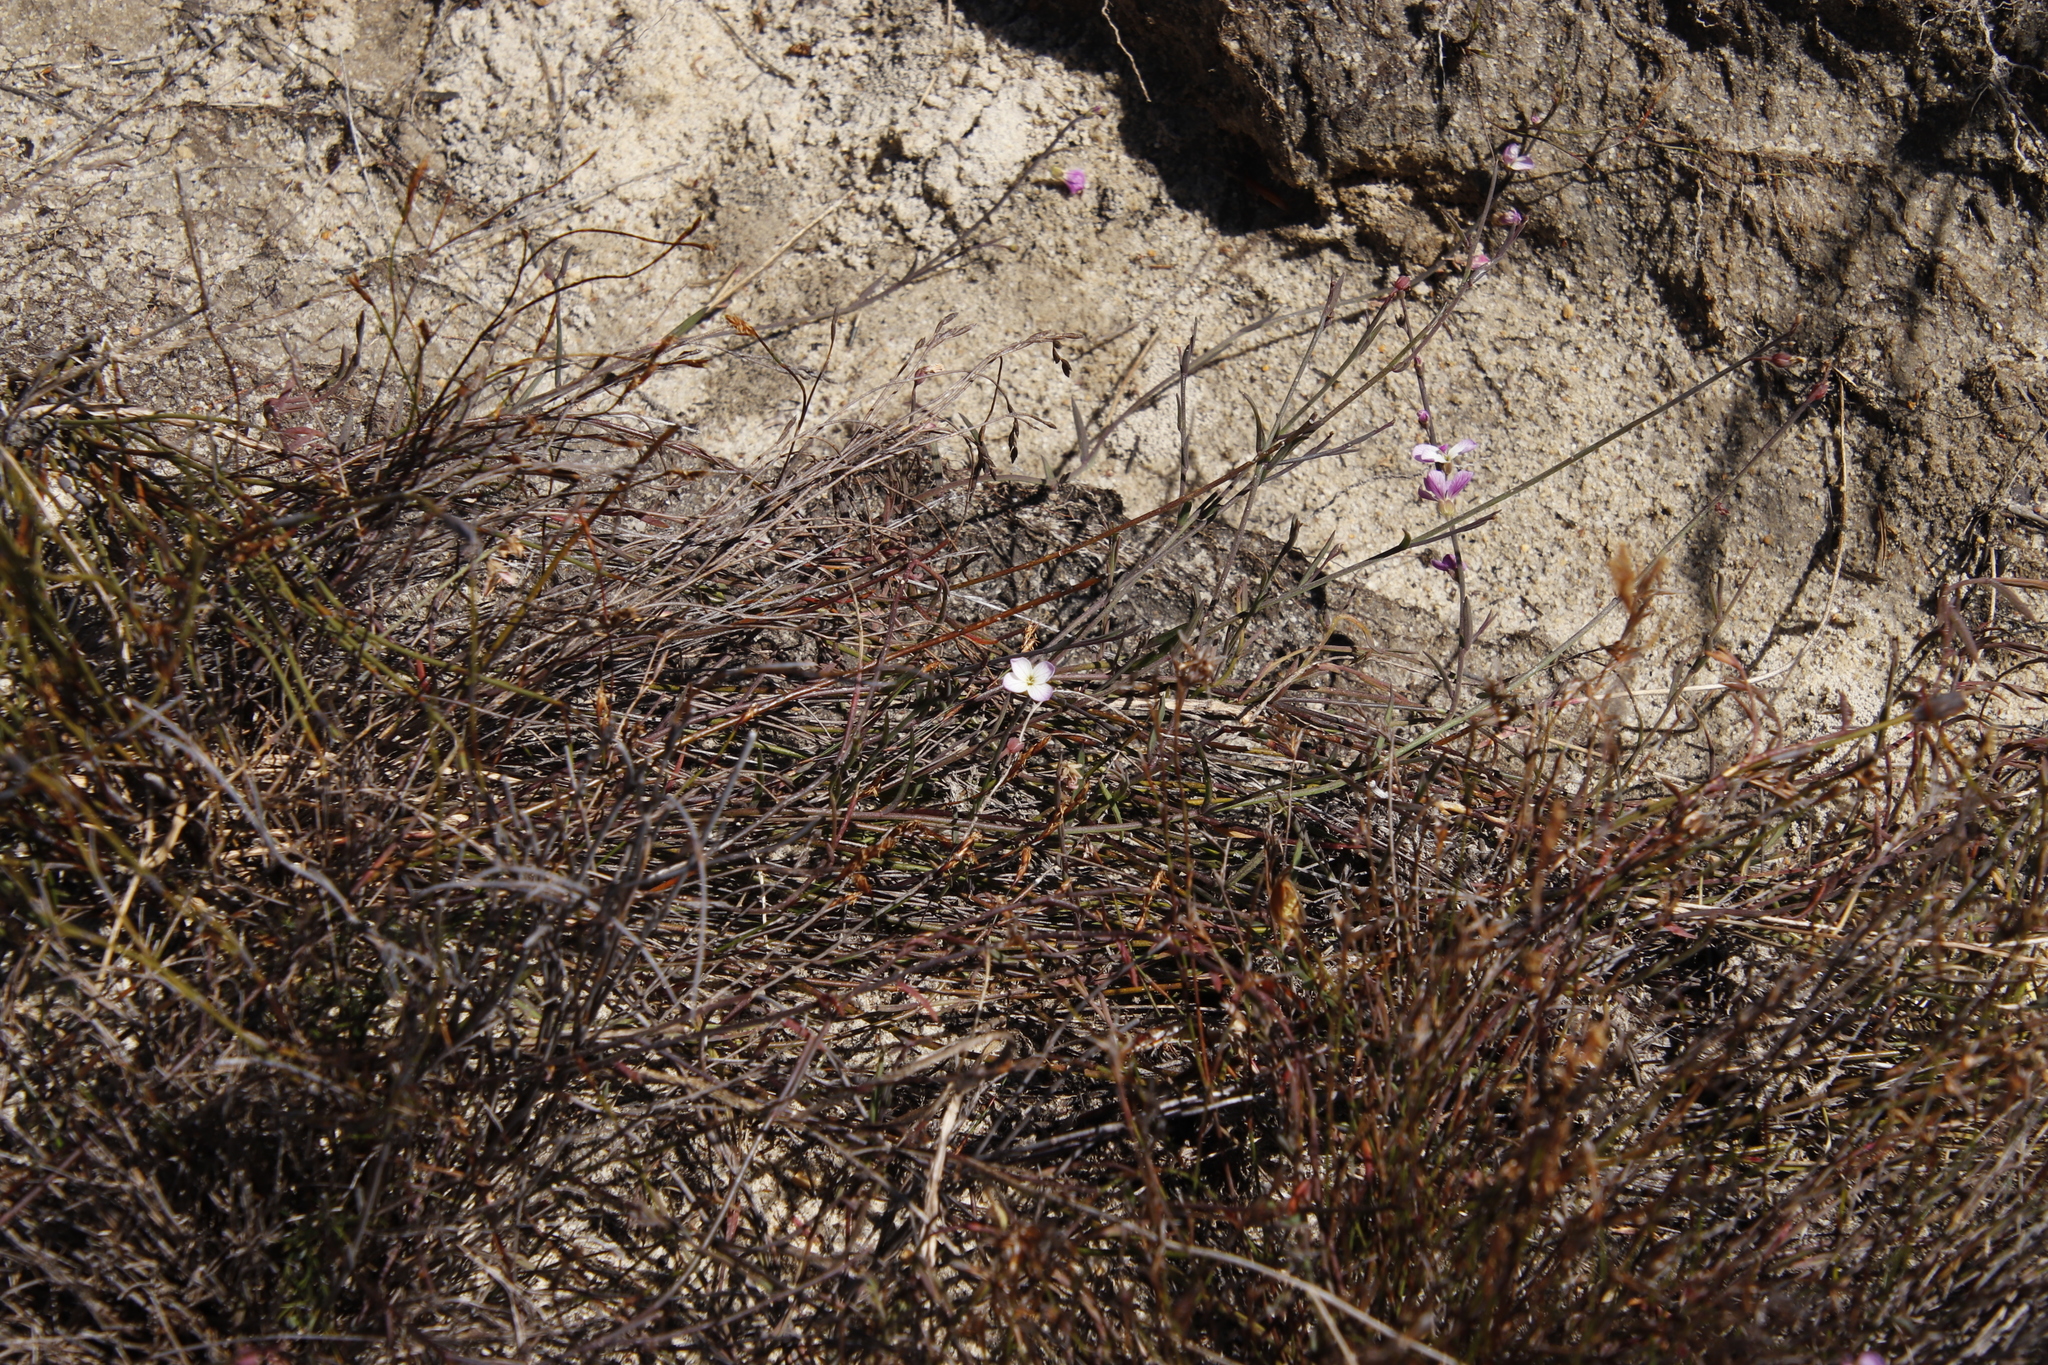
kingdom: Plantae
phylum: Tracheophyta
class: Magnoliopsida
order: Brassicales
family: Brassicaceae
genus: Heliophila
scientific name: Heliophila juncea
